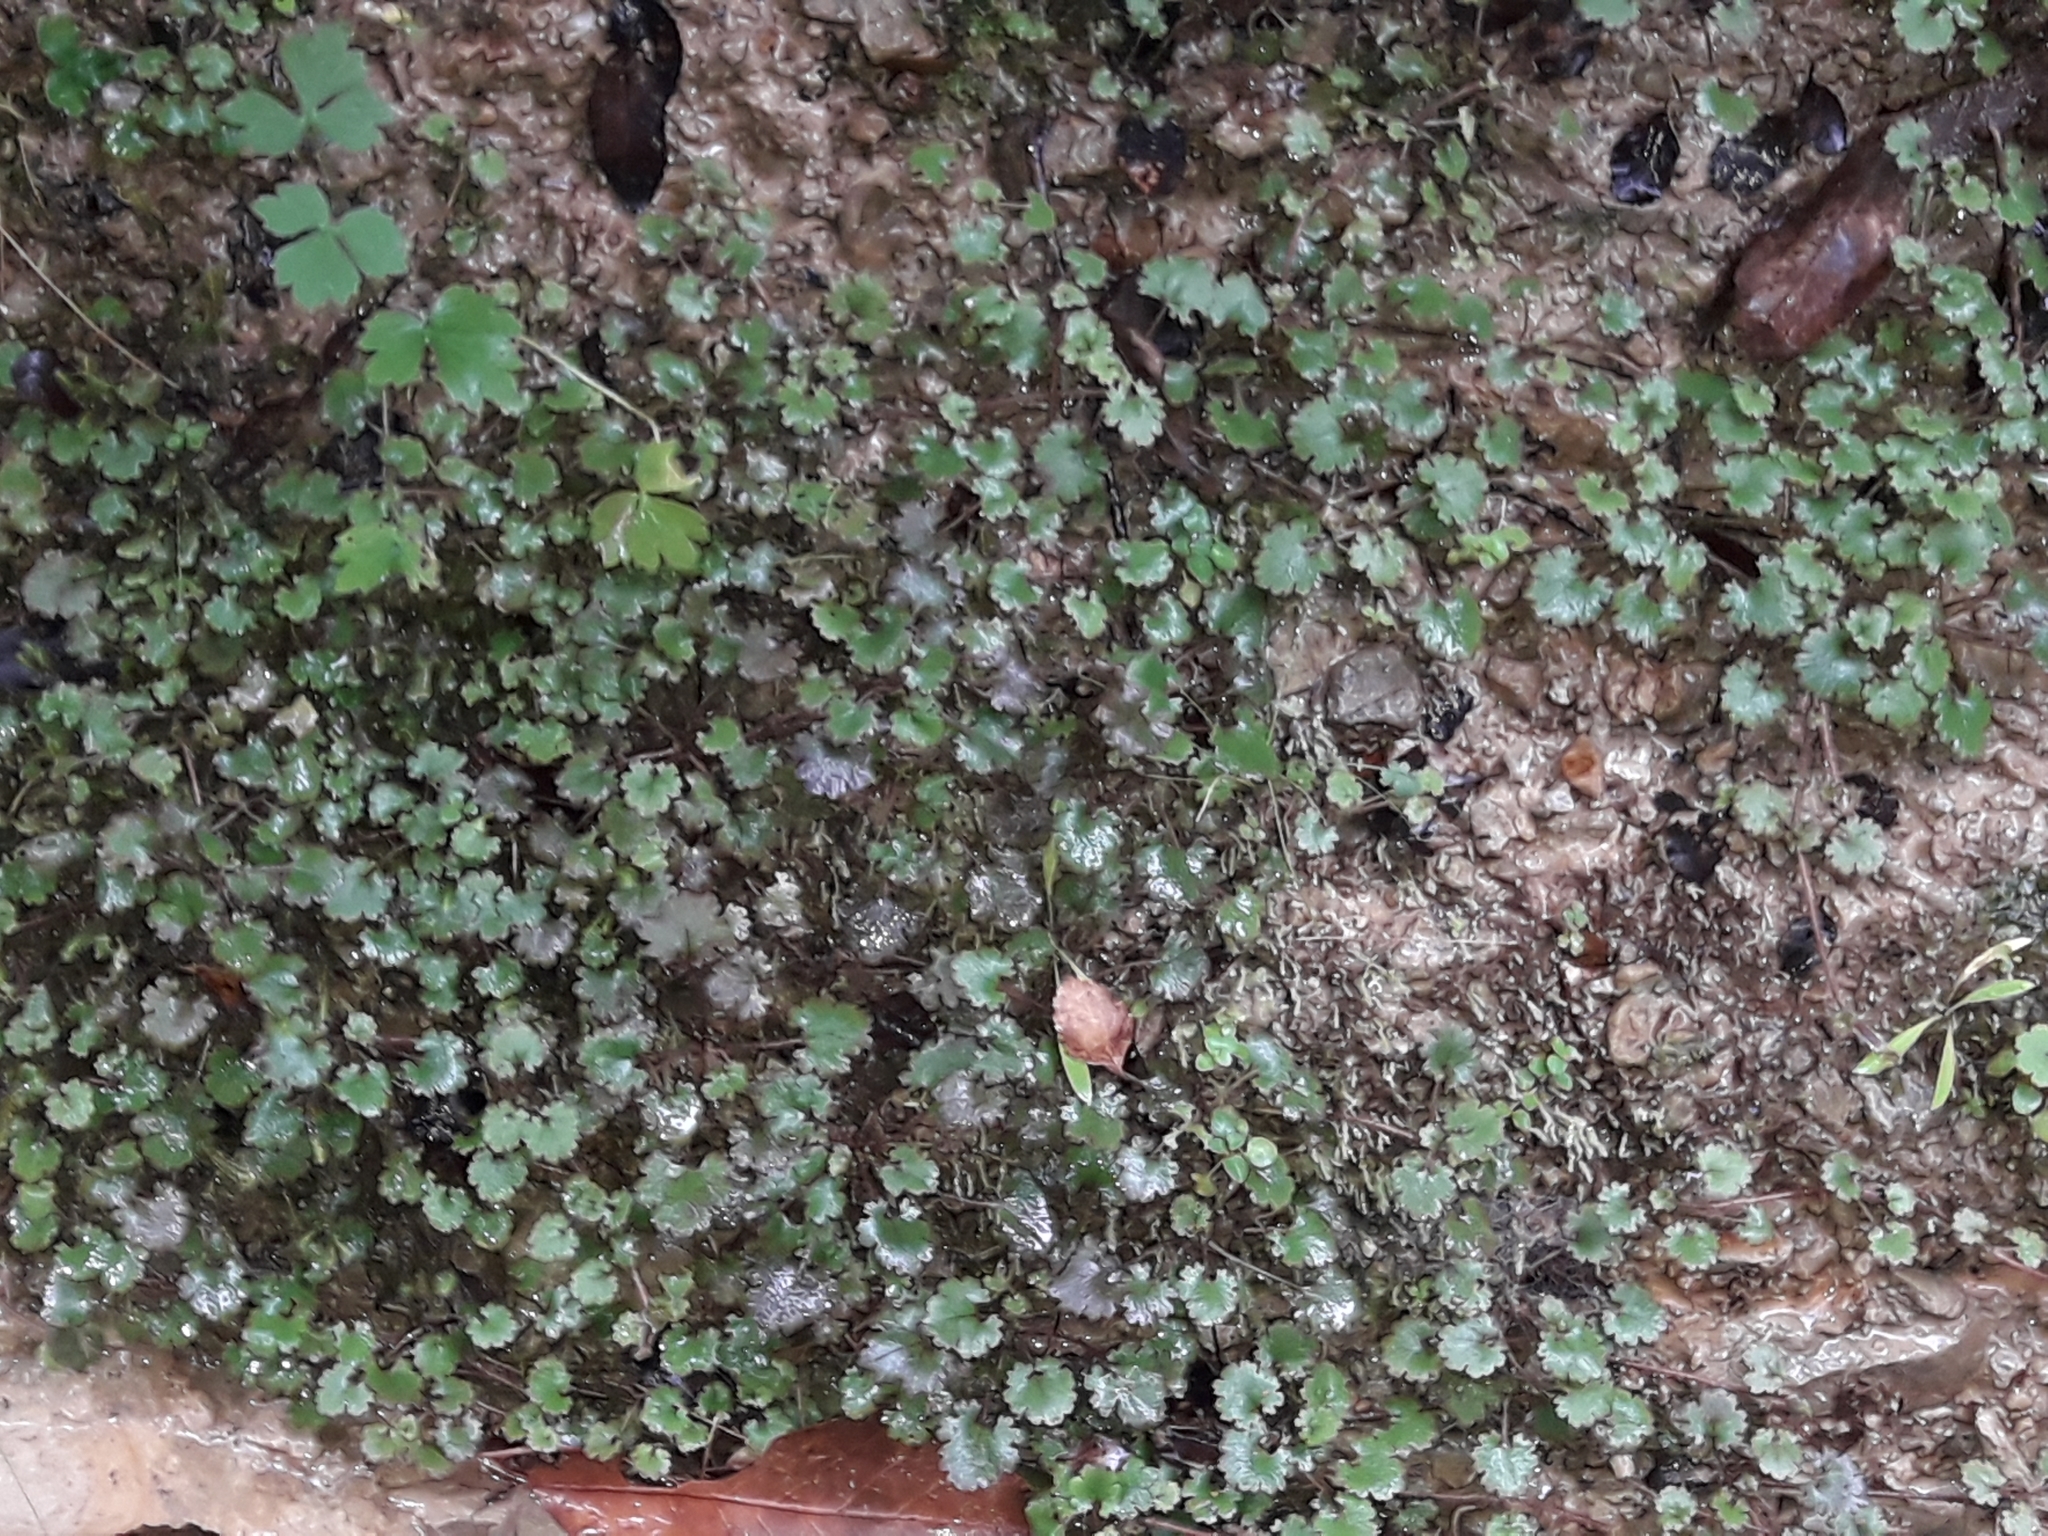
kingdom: Plantae
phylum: Tracheophyta
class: Magnoliopsida
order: Gunnerales
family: Gunneraceae
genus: Gunnera
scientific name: Gunnera monoica
